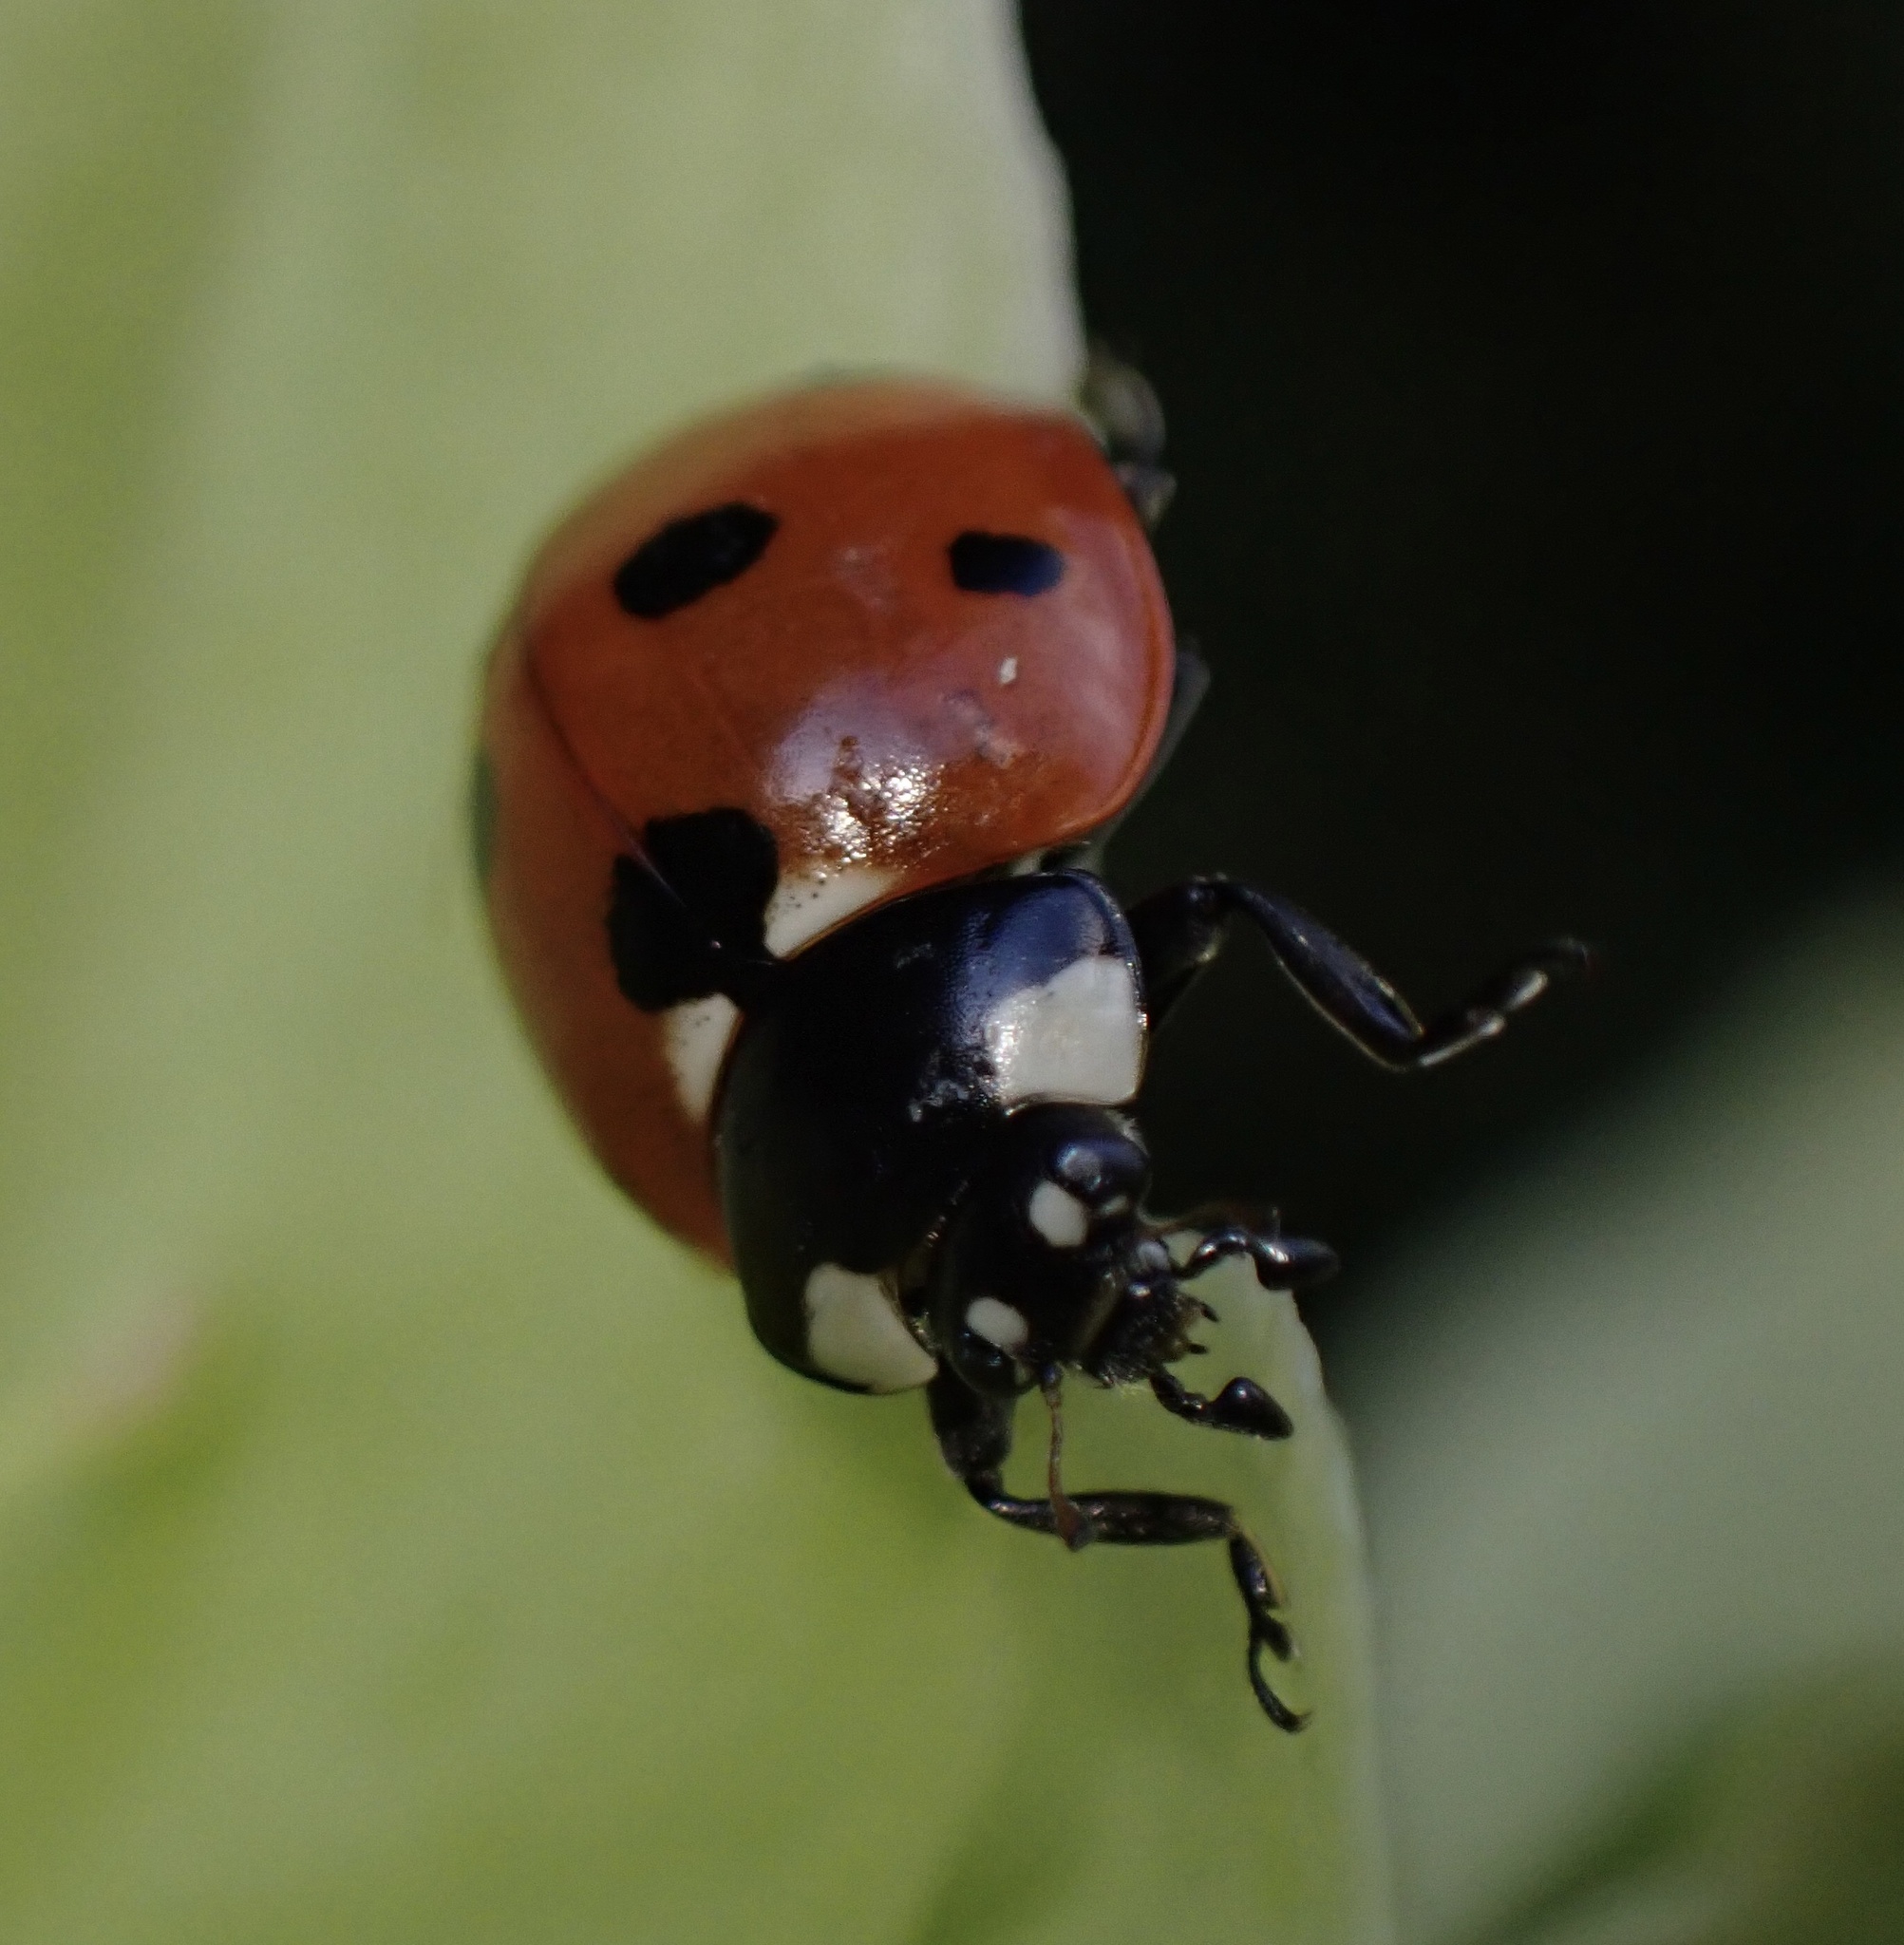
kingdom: Animalia
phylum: Arthropoda
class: Insecta
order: Coleoptera
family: Coccinellidae
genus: Coccinella
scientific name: Coccinella septempunctata
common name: Sevenspotted lady beetle
